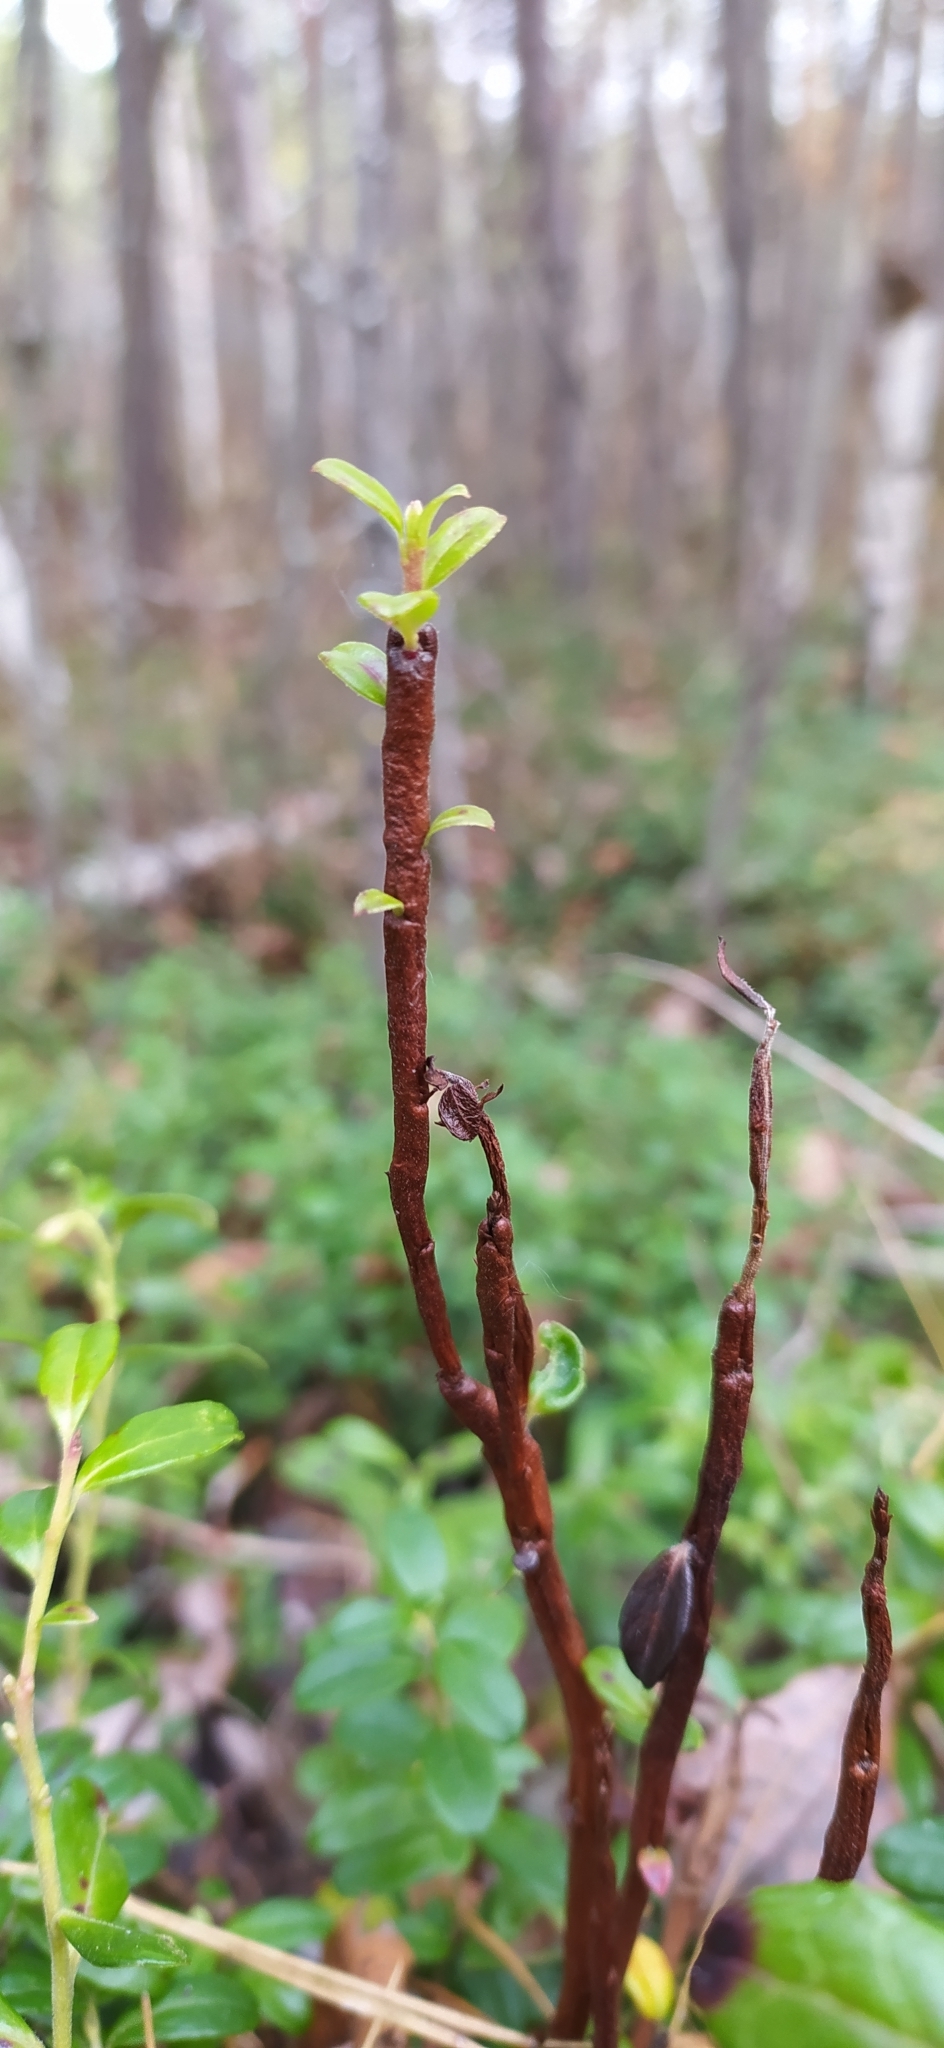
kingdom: Fungi
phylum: Basidiomycota
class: Pucciniomycetes
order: Pucciniales
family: Pucciniastraceae
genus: Calyptospora
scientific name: Calyptospora columnaris
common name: Huckleberry broom rust fungus
